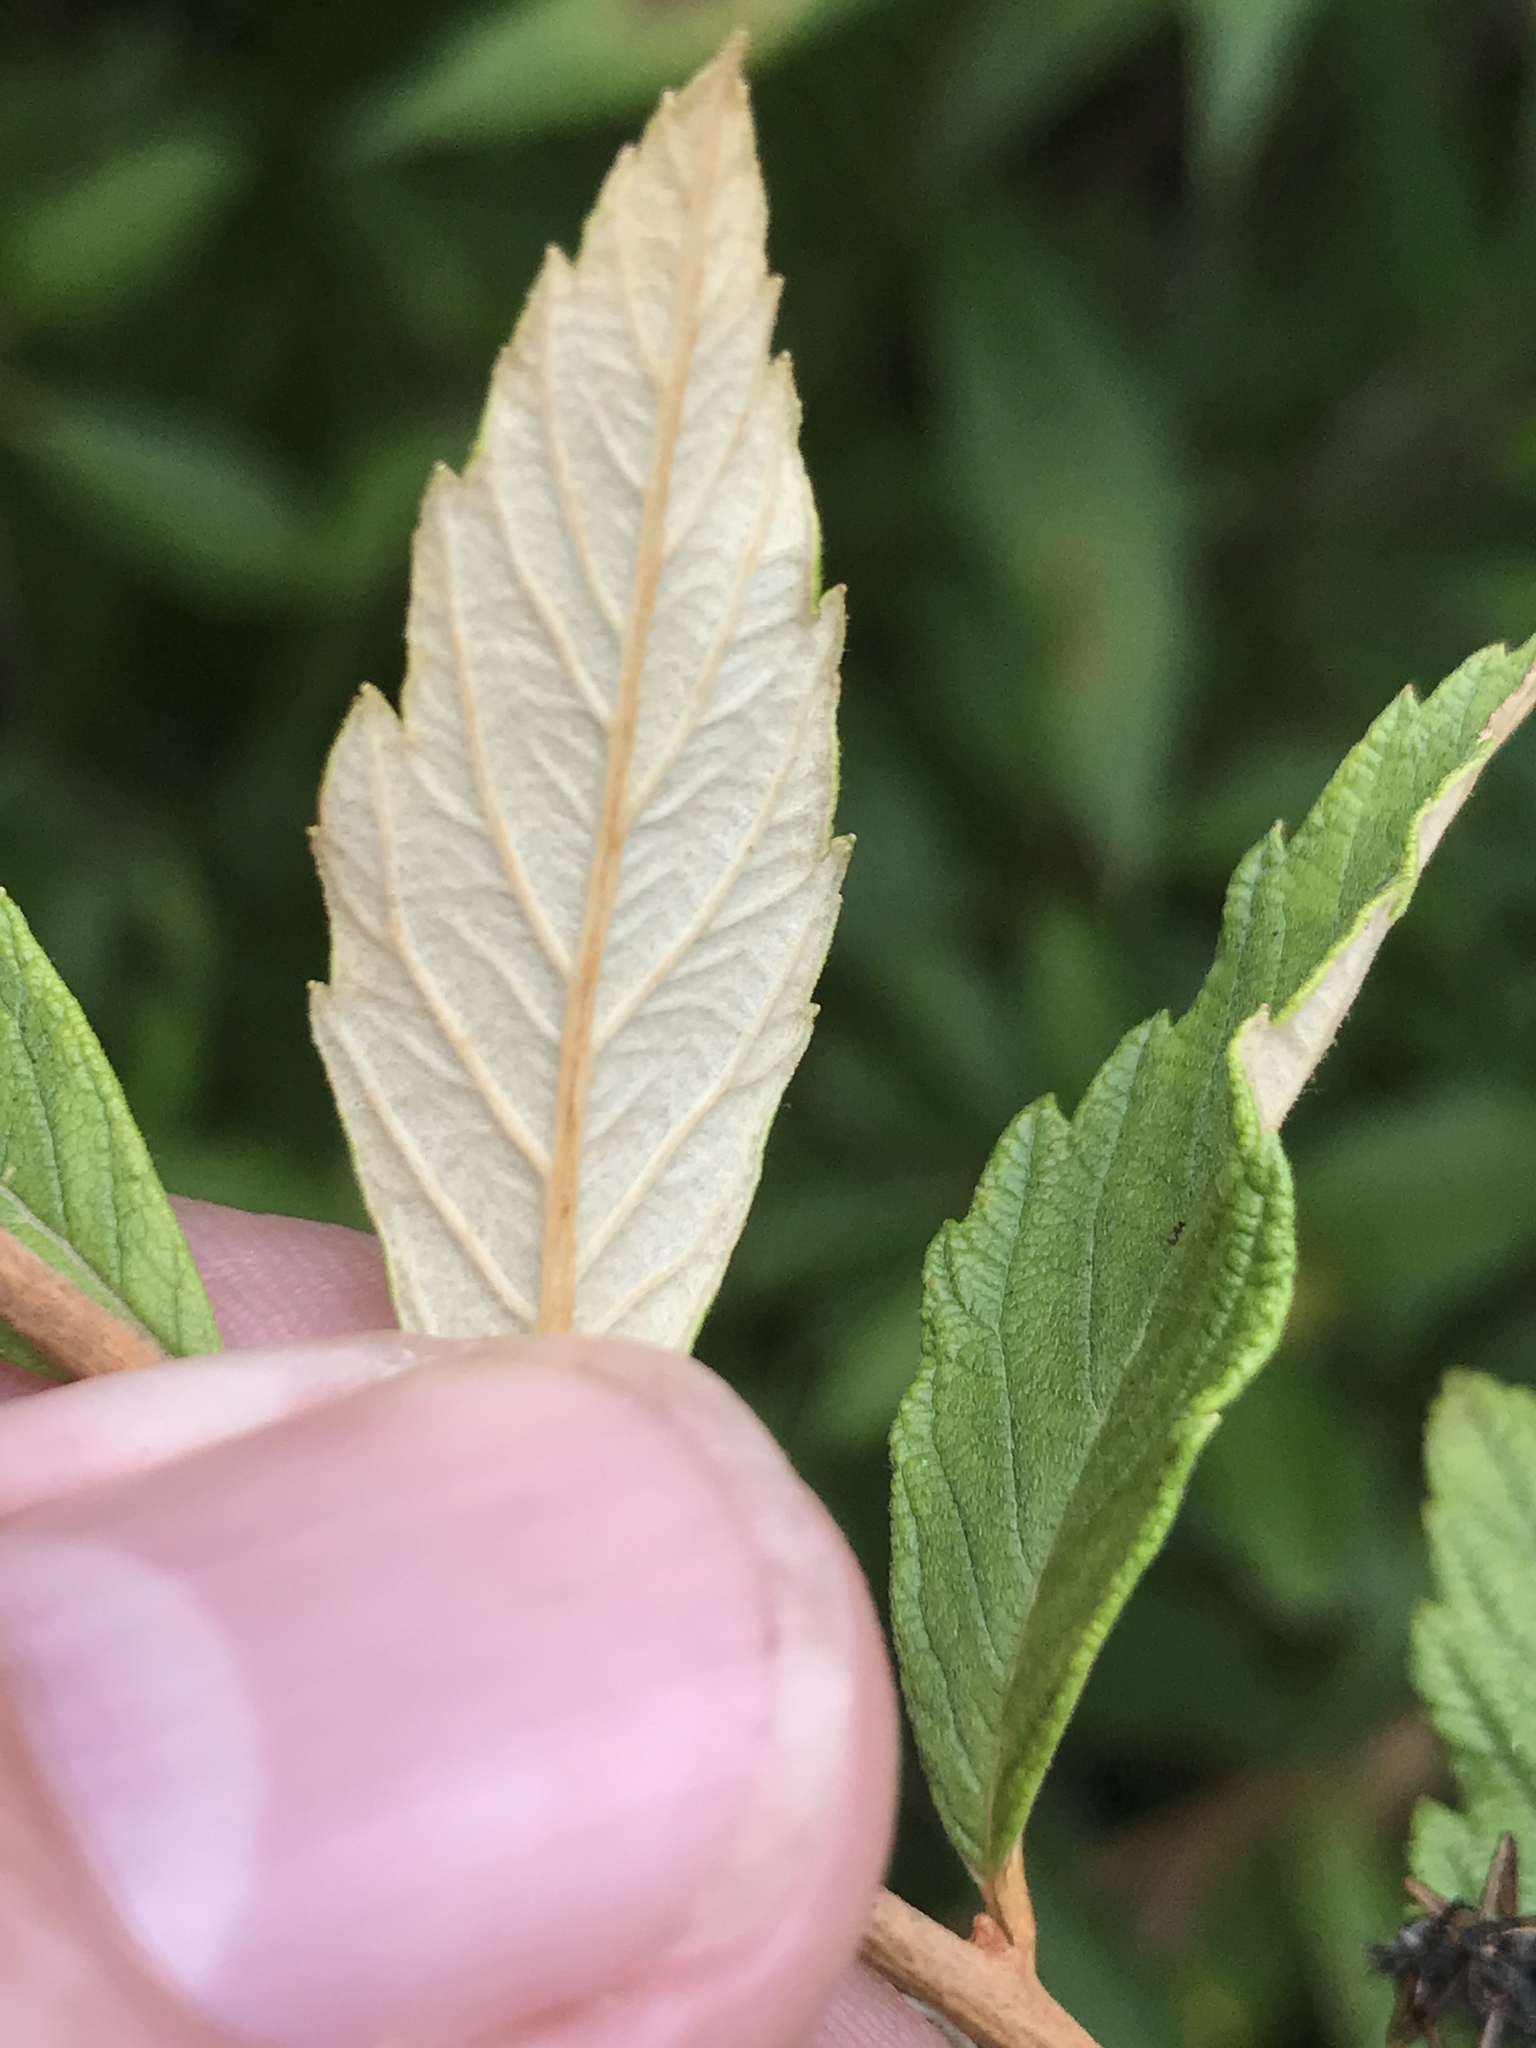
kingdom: Plantae
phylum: Tracheophyta
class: Magnoliopsida
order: Rosales
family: Rosaceae
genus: Spiraea
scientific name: Spiraea tomentosa
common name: Hardhack
